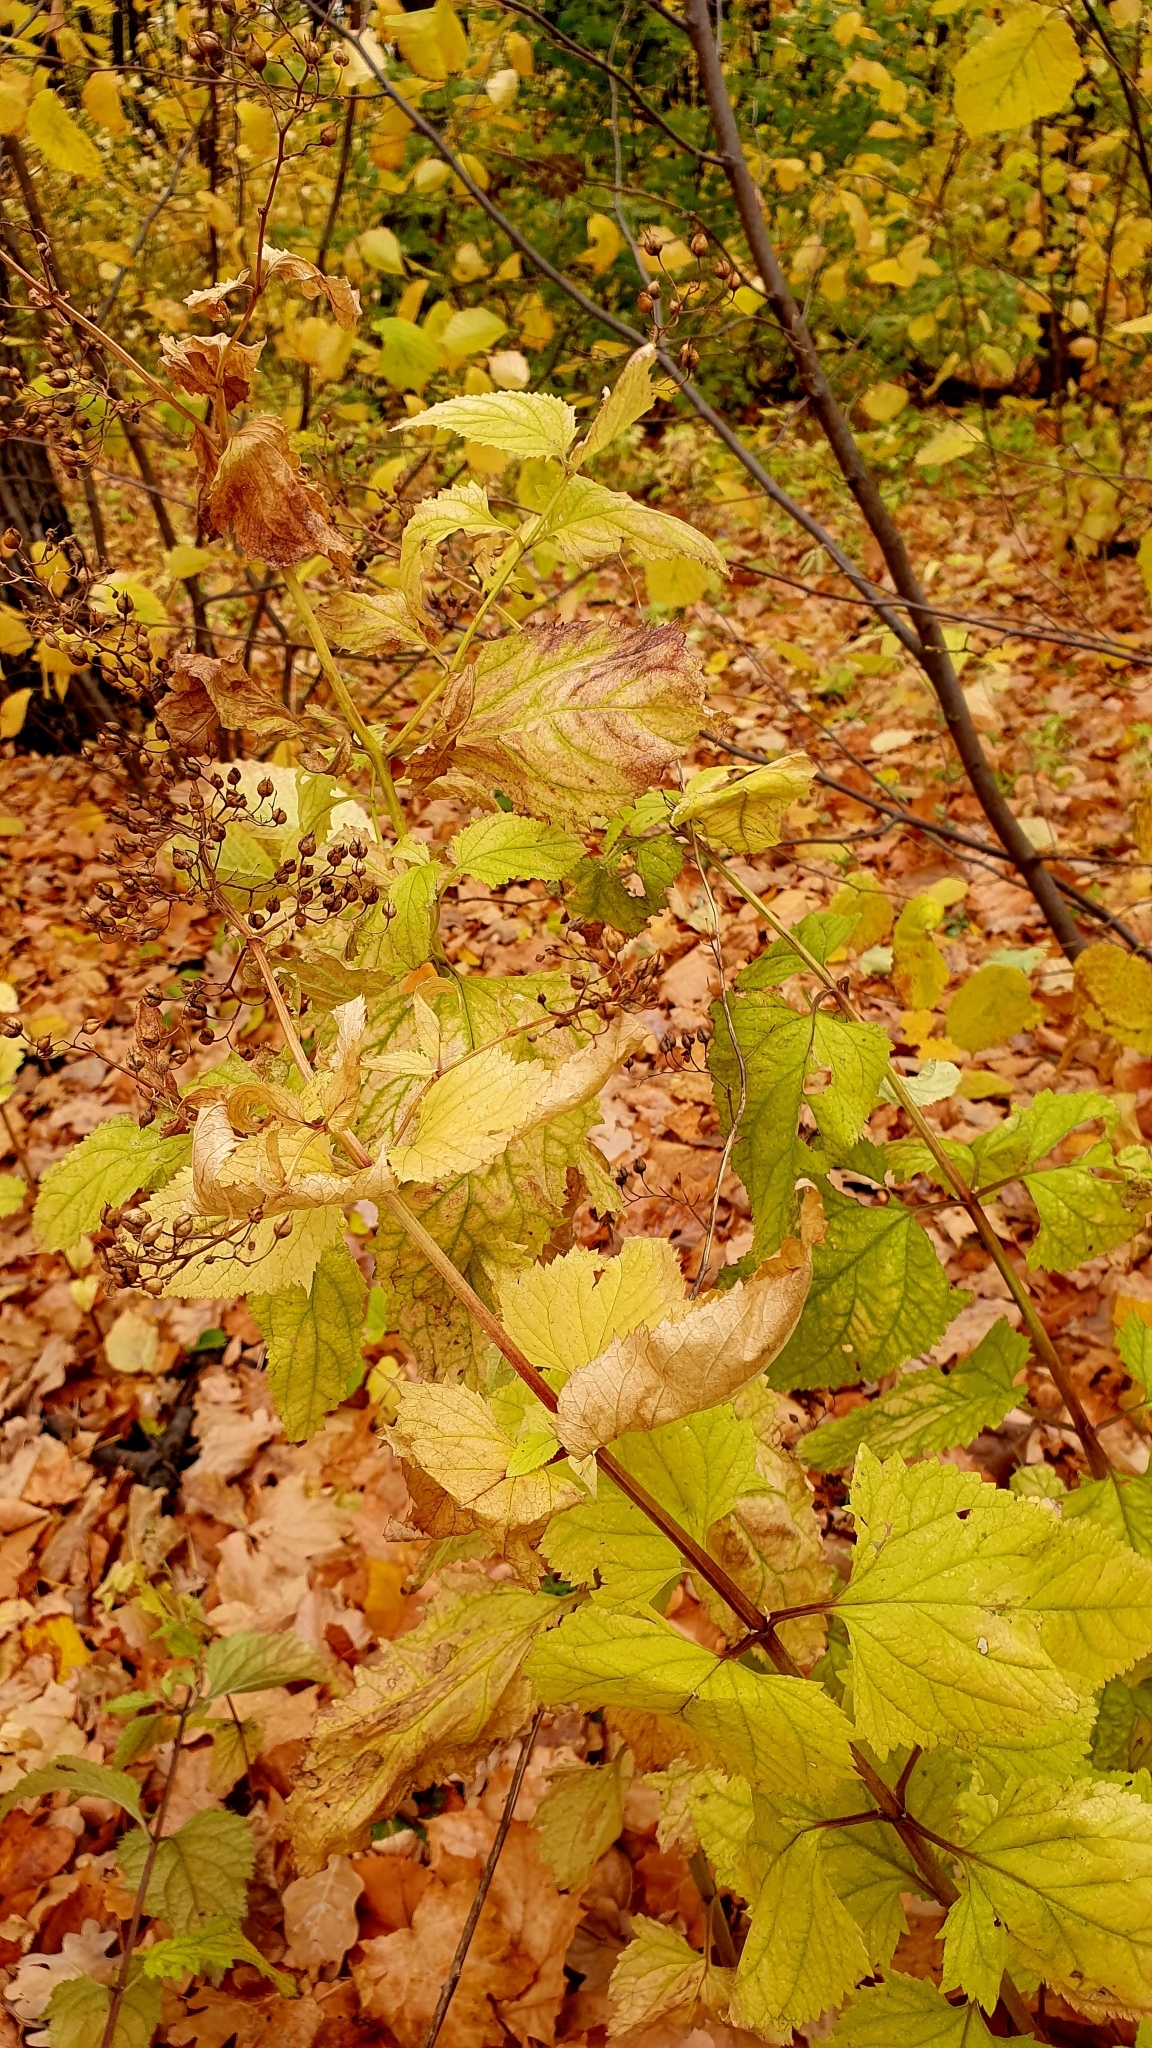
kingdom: Plantae
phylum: Tracheophyta
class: Magnoliopsida
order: Lamiales
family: Scrophulariaceae
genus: Scrophularia
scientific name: Scrophularia nodosa
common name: Common figwort
